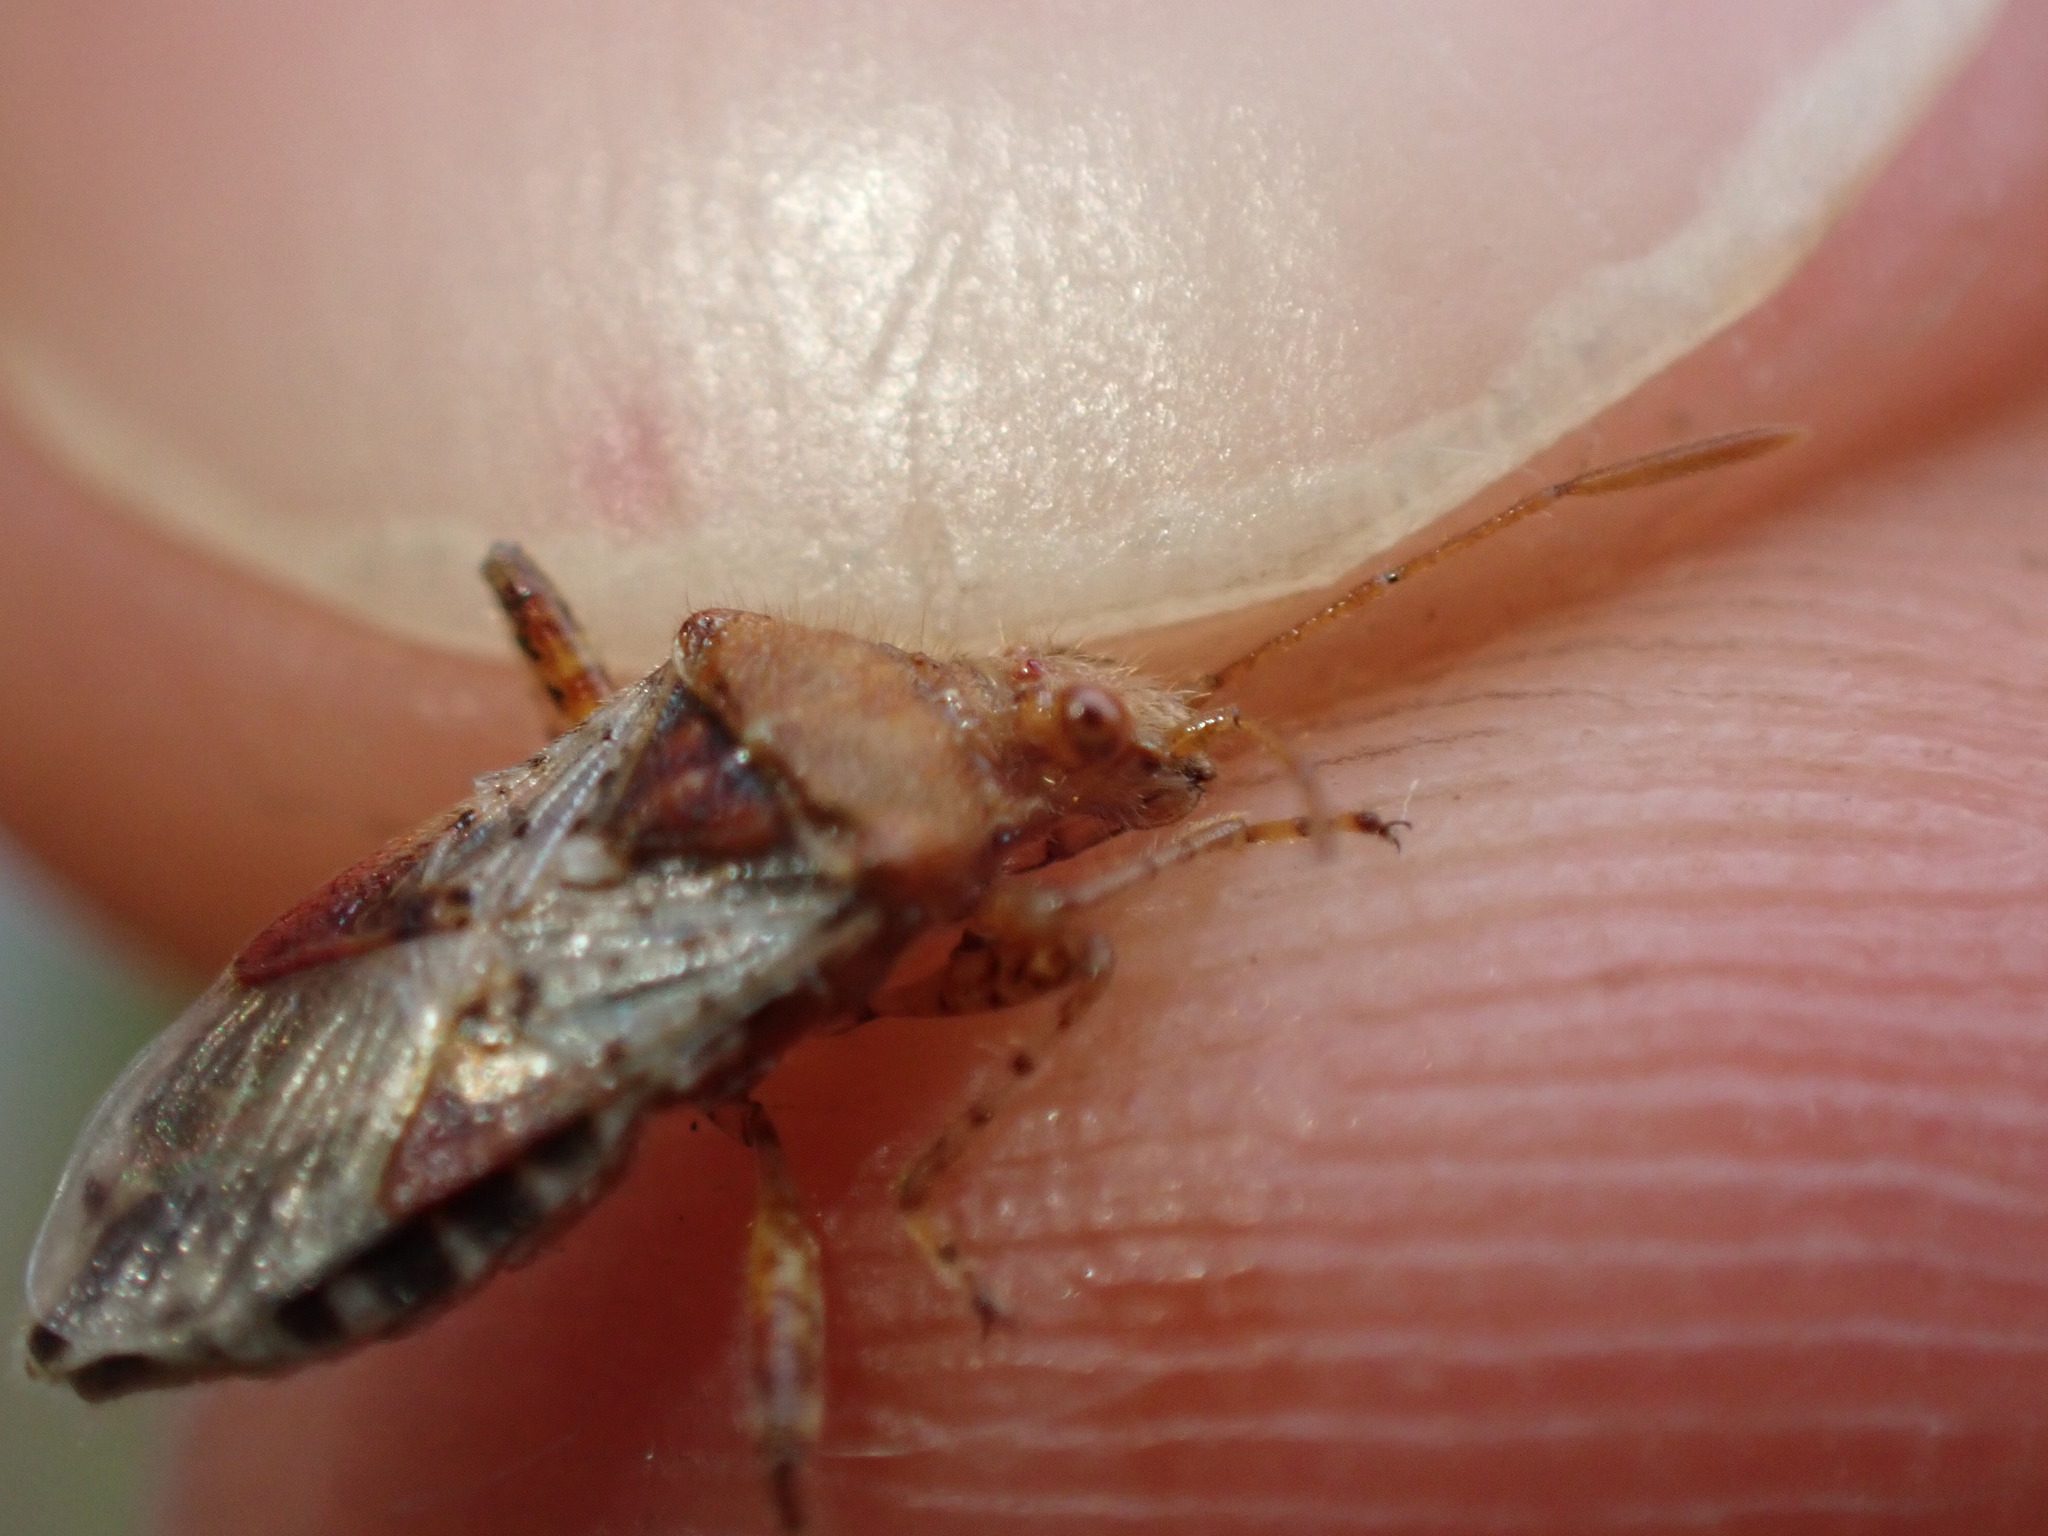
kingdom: Animalia
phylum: Arthropoda
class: Insecta
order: Hemiptera
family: Rhopalidae
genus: Rhopalus
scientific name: Rhopalus subrufus
